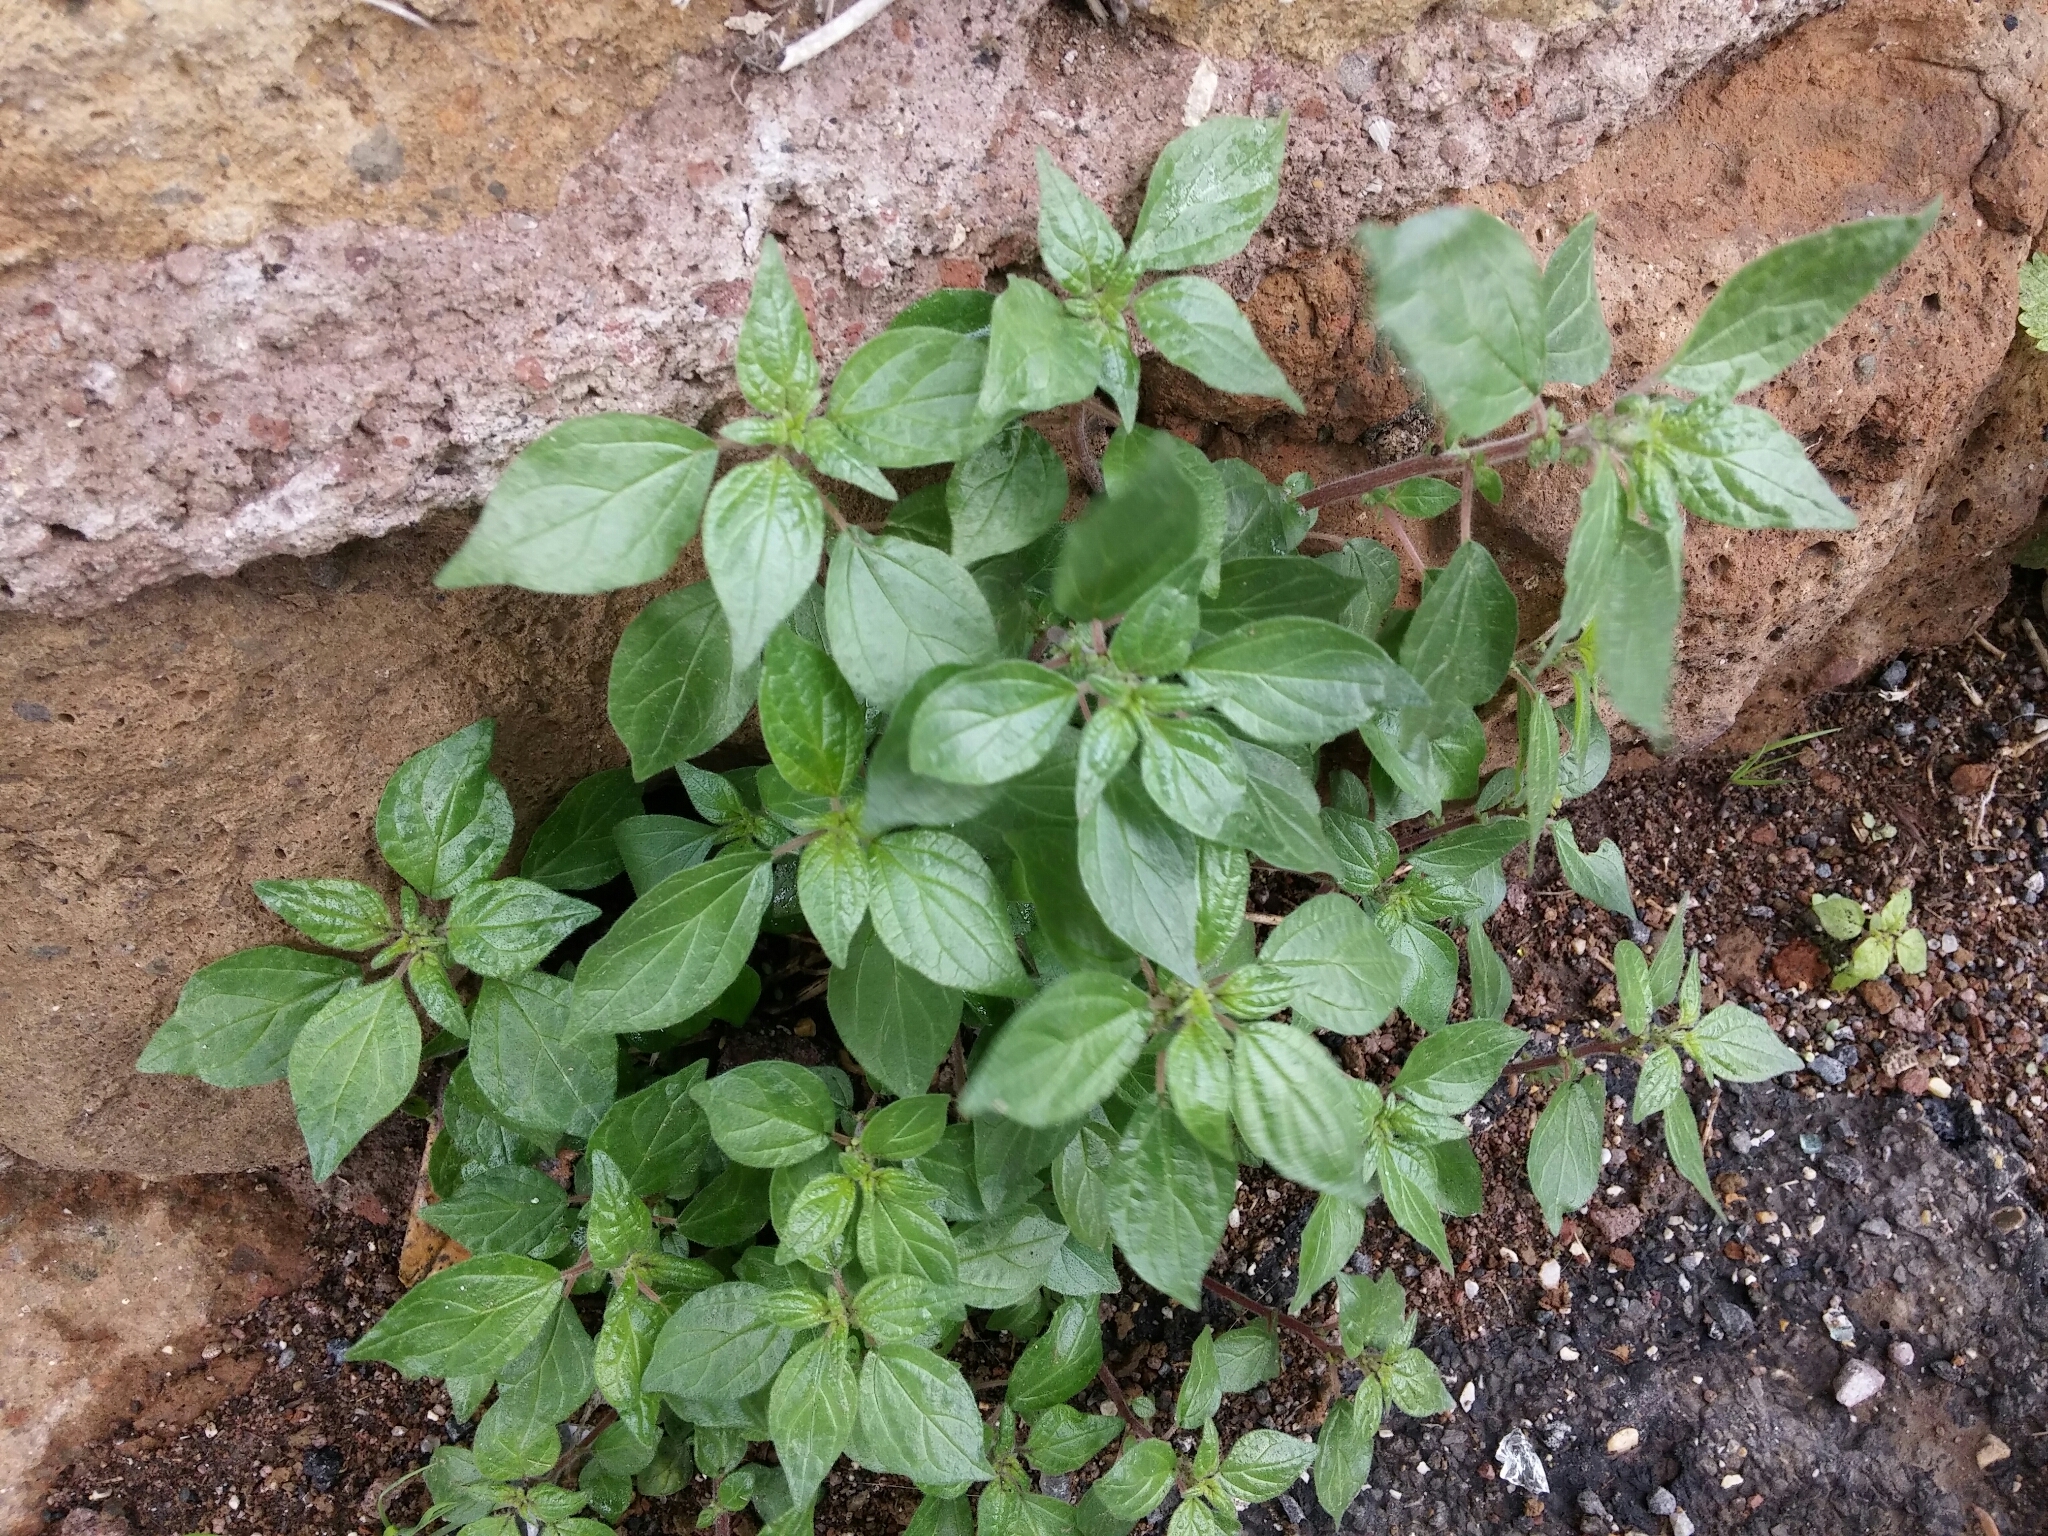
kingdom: Plantae
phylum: Tracheophyta
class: Magnoliopsida
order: Rosales
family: Urticaceae
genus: Parietaria
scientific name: Parietaria judaica
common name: Pellitory-of-the-wall
